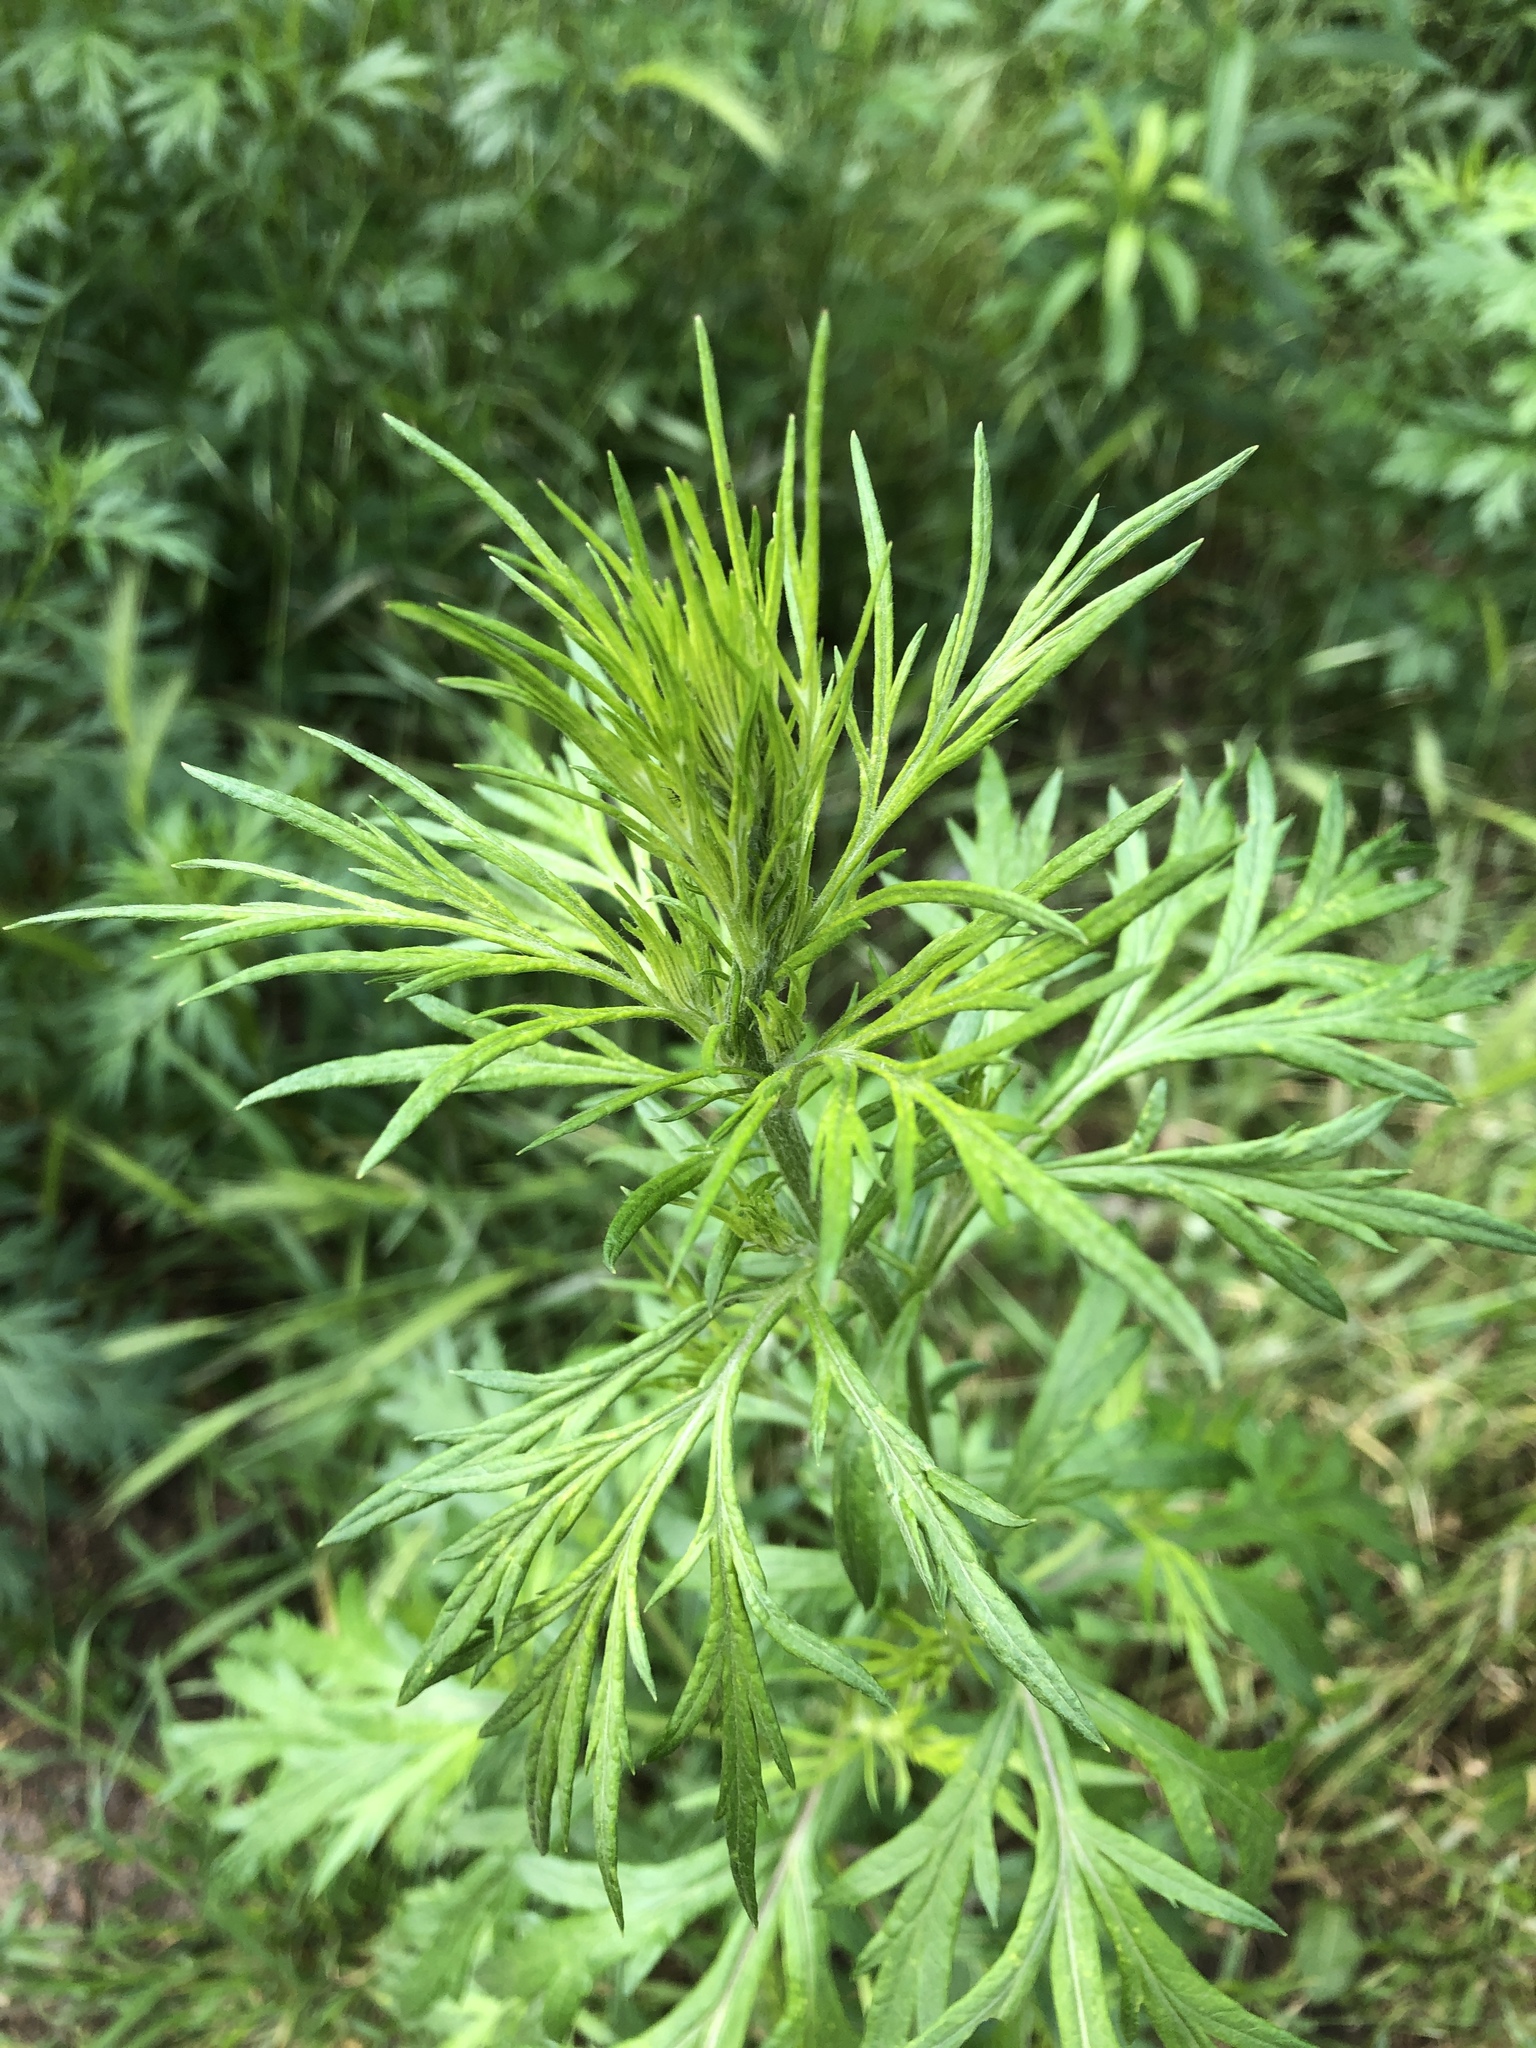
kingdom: Plantae
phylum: Tracheophyta
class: Magnoliopsida
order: Asterales
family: Asteraceae
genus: Artemisia
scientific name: Artemisia vulgaris
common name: Mugwort
